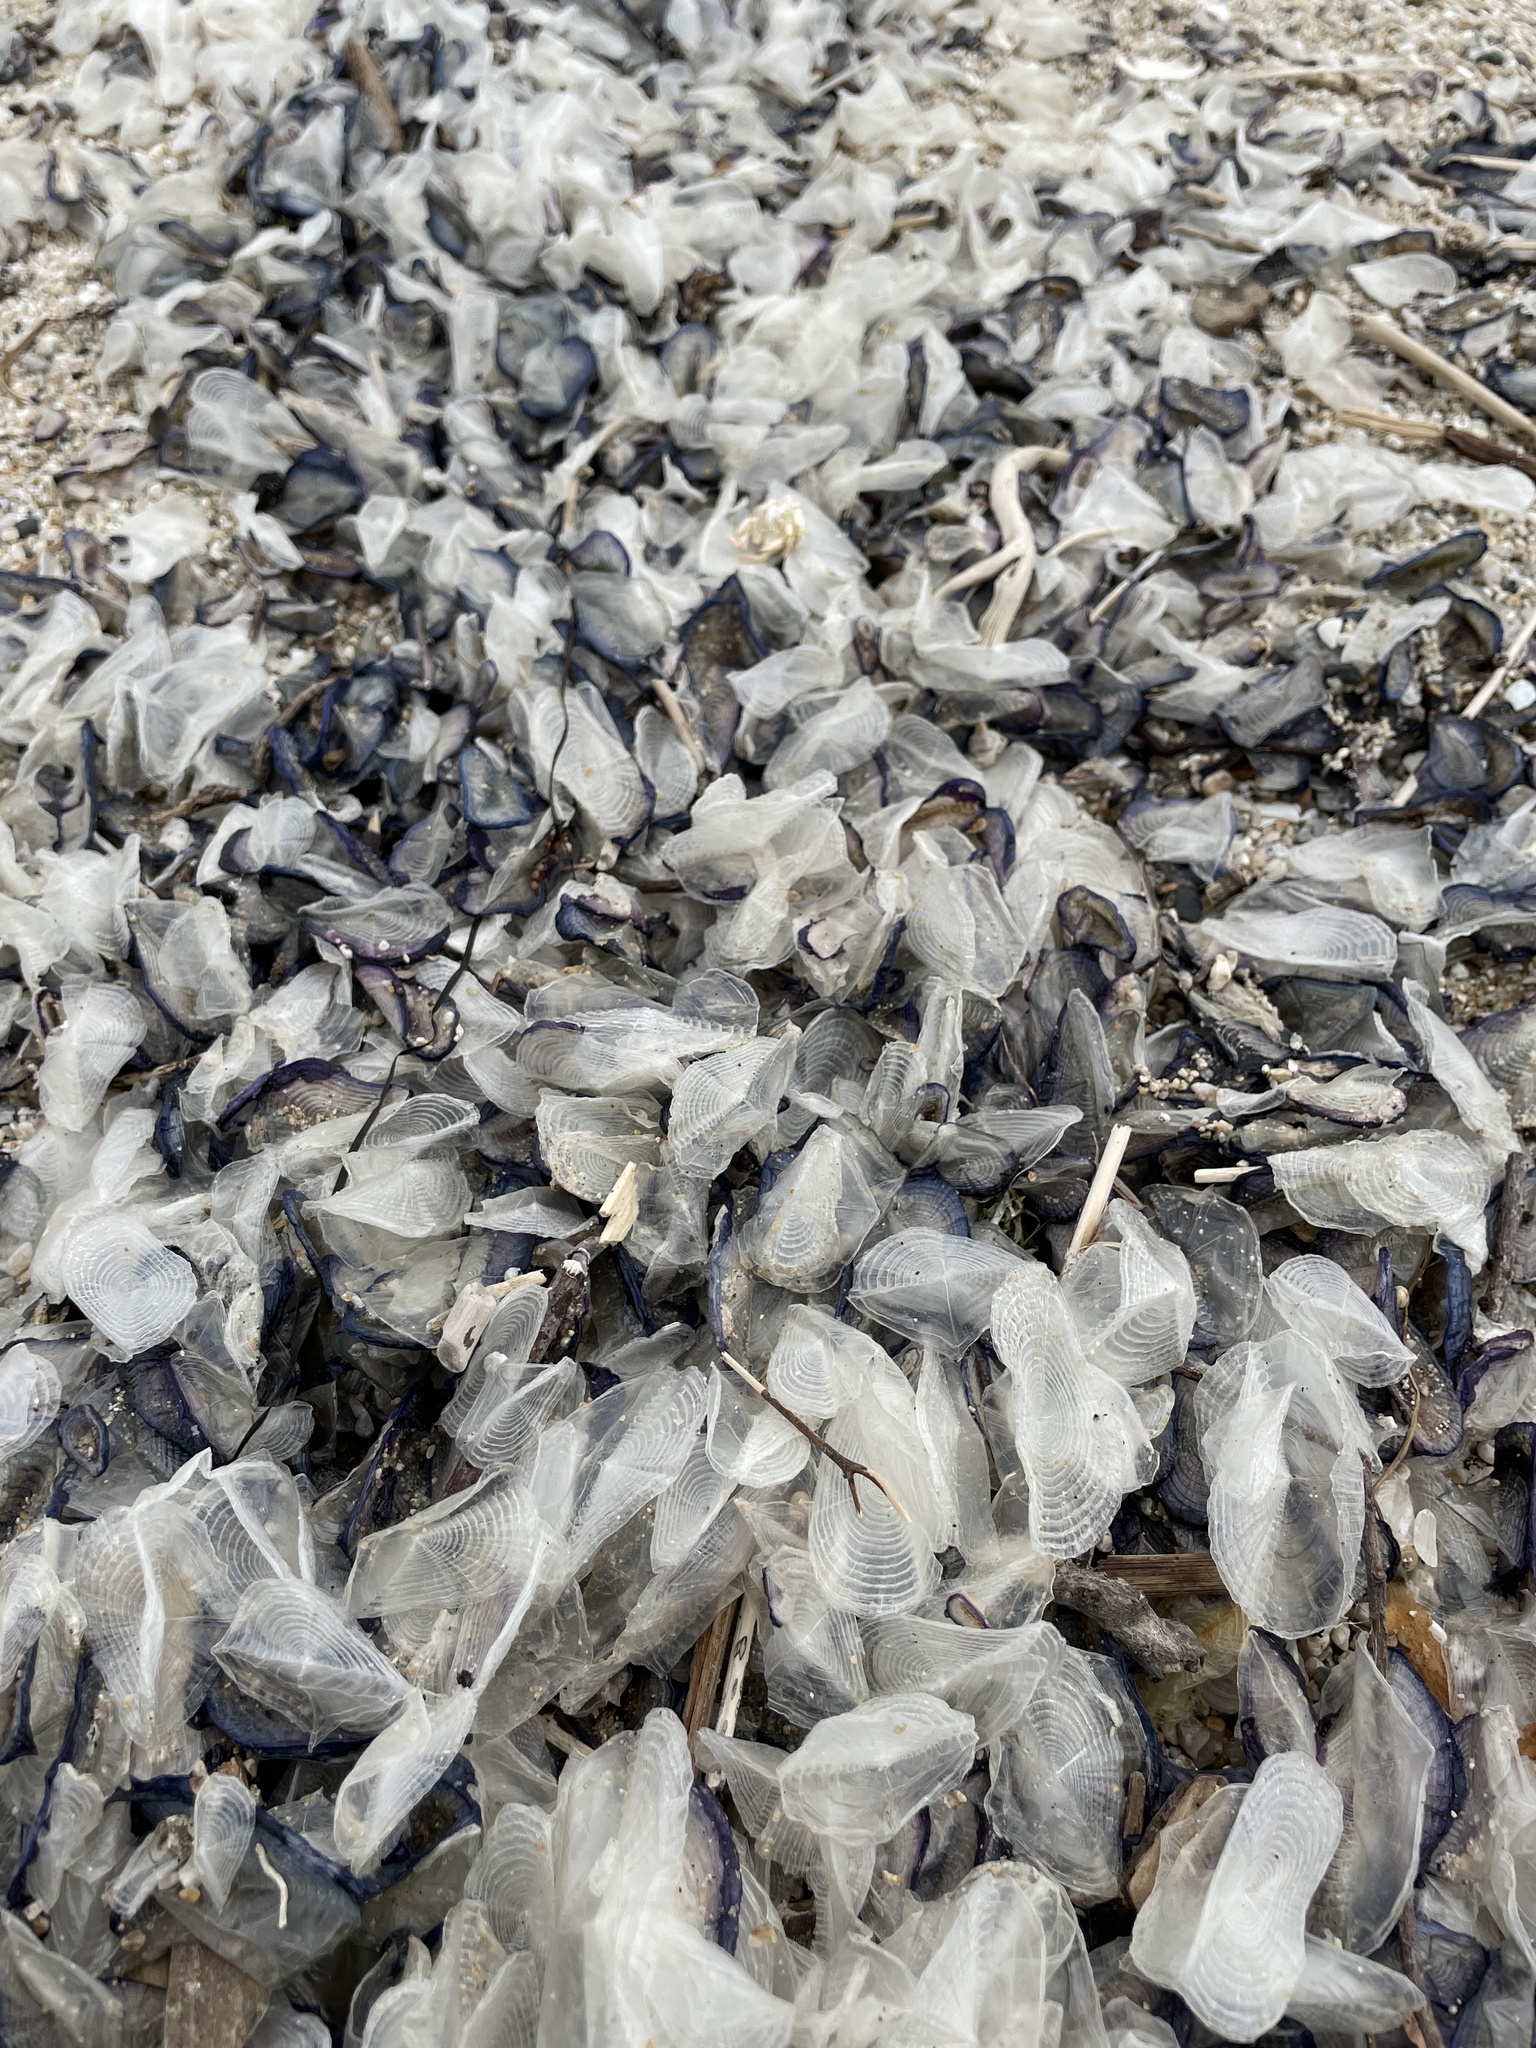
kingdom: Animalia
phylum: Cnidaria
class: Hydrozoa
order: Anthoathecata
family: Porpitidae
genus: Velella
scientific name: Velella velella
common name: By-the-wind-sailor
